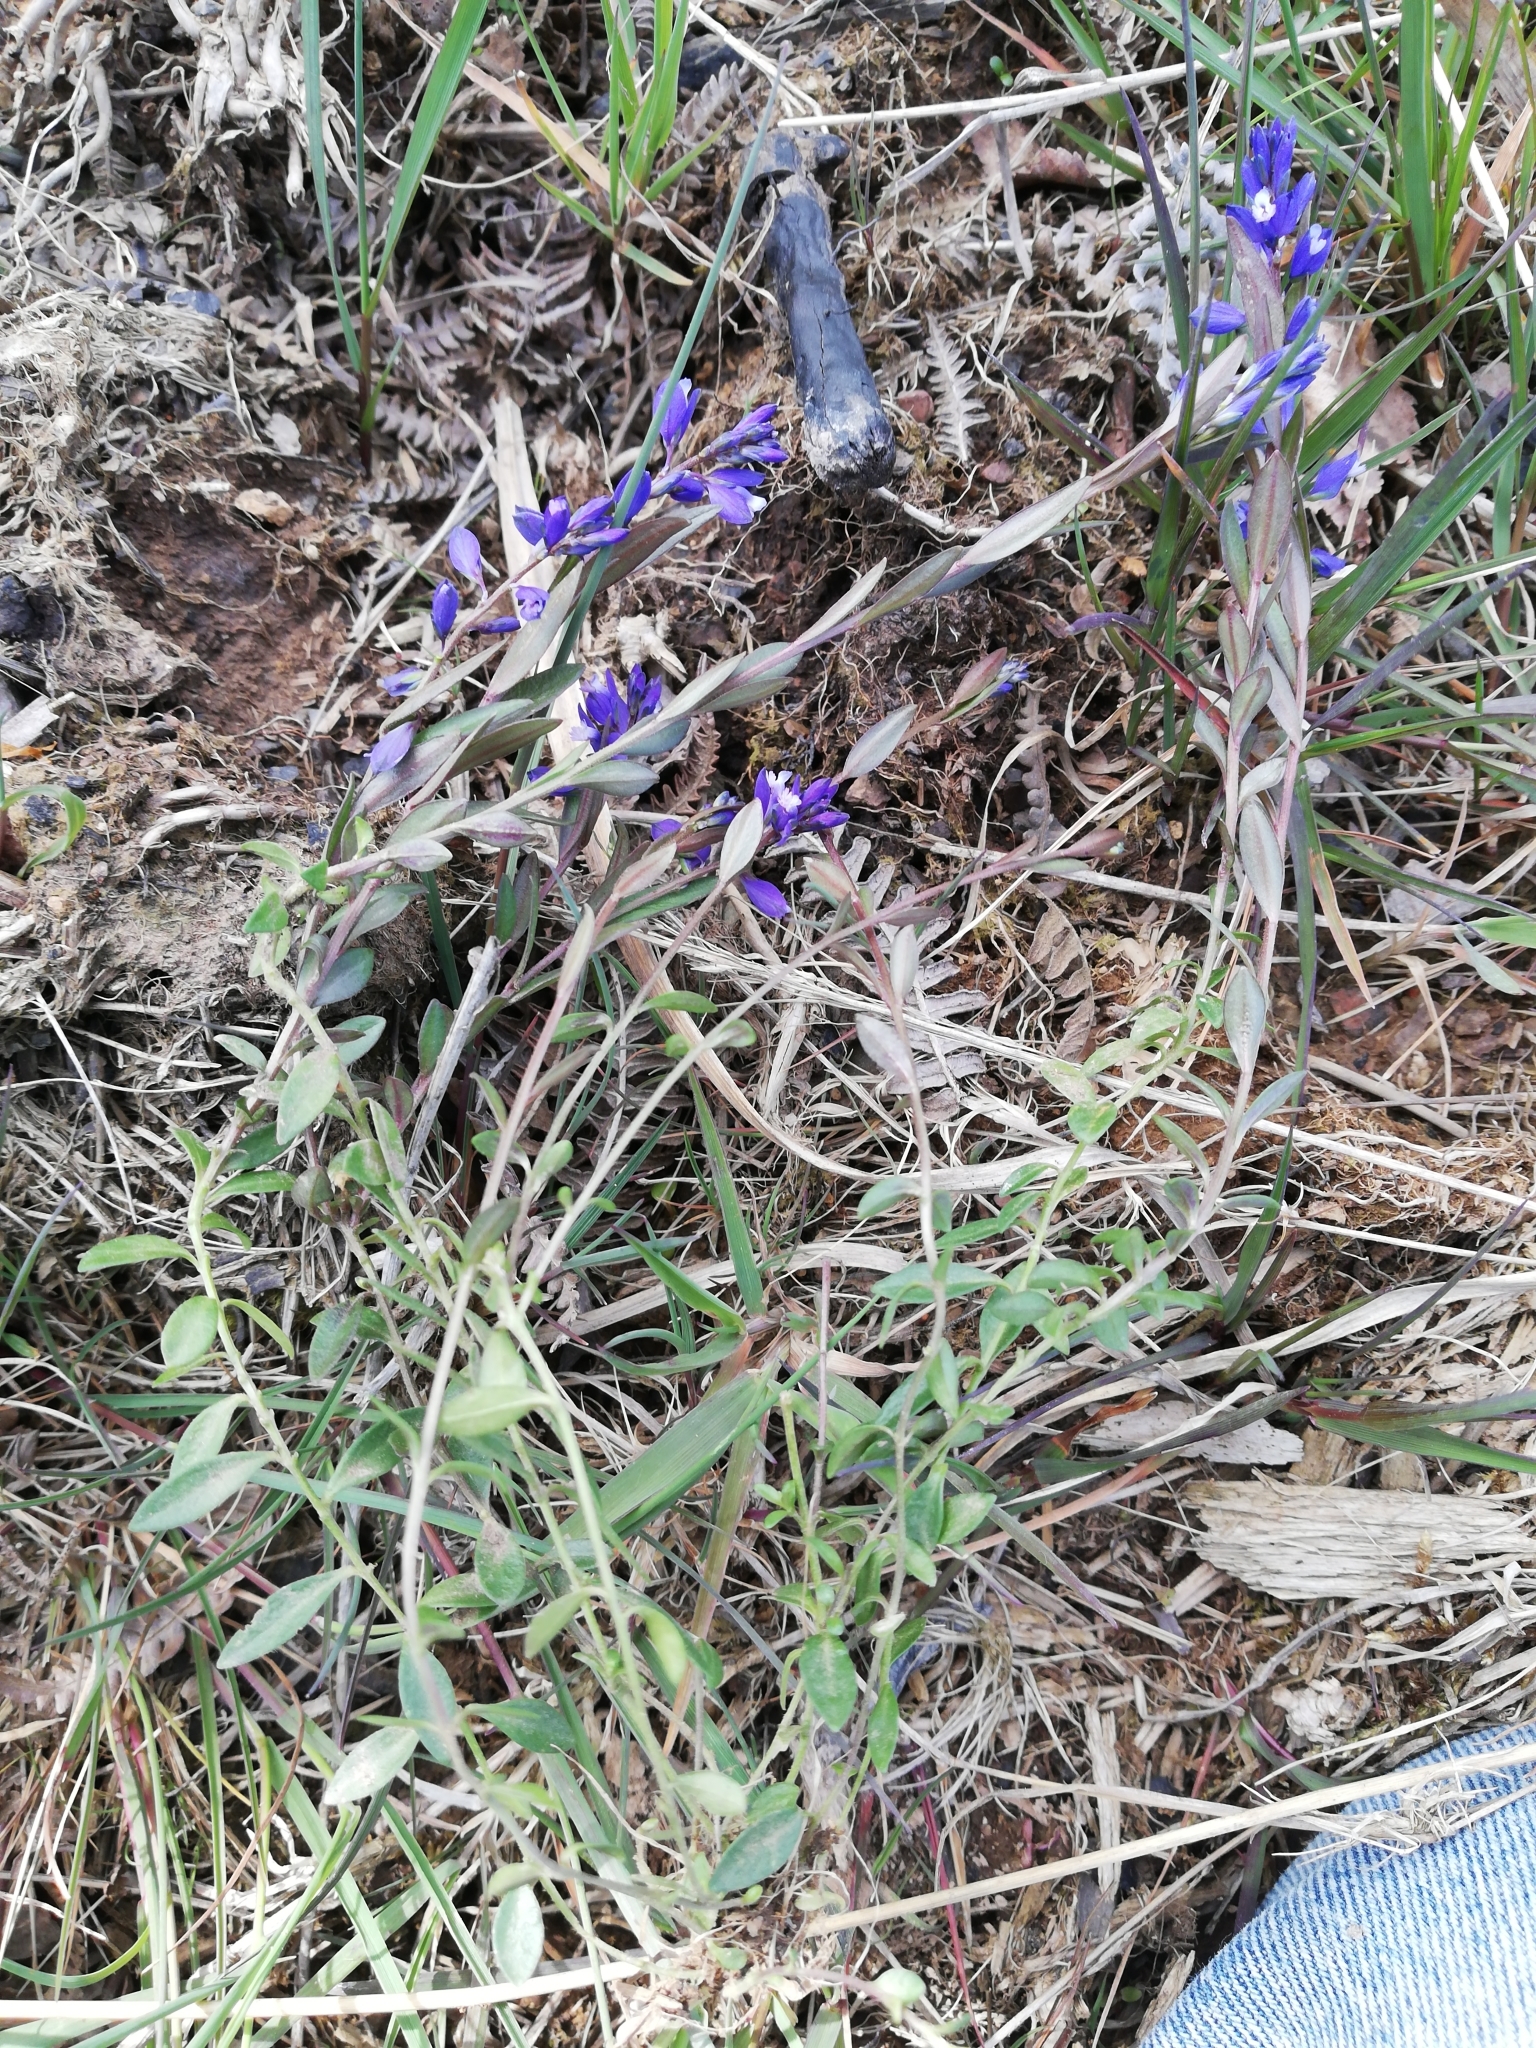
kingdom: Plantae
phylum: Tracheophyta
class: Magnoliopsida
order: Fabales
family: Polygalaceae
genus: Polygala
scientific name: Polygala serpyllifolia
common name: Heath milkwort
